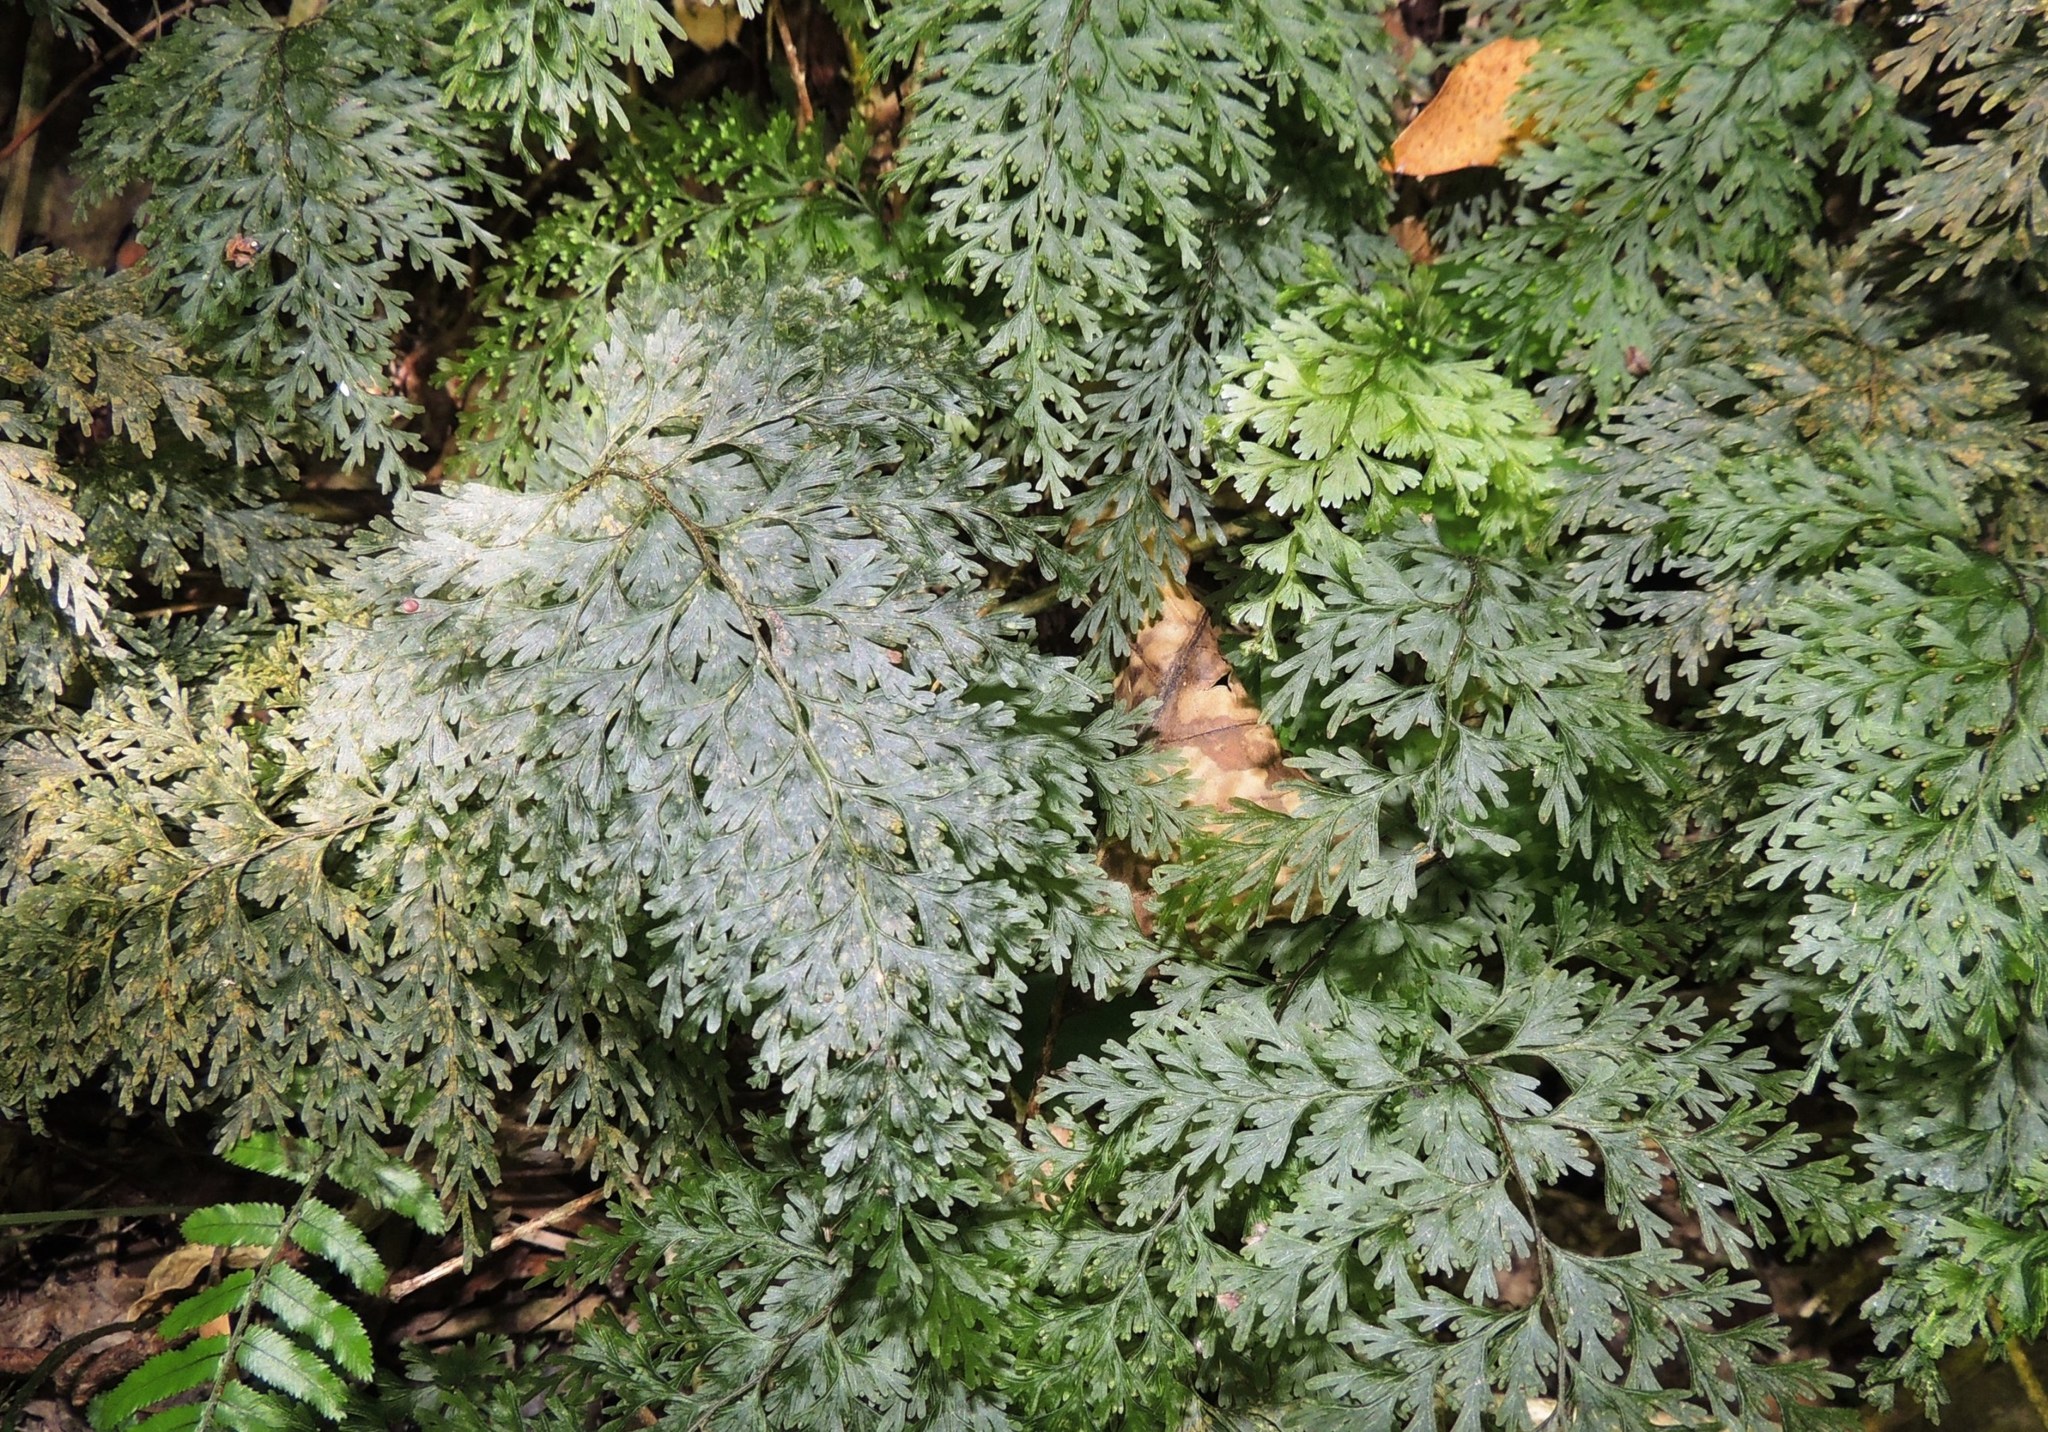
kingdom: Plantae
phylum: Tracheophyta
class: Polypodiopsida
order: Hymenophyllales
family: Hymenophyllaceae
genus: Hymenophyllum
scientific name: Hymenophyllum demissum
